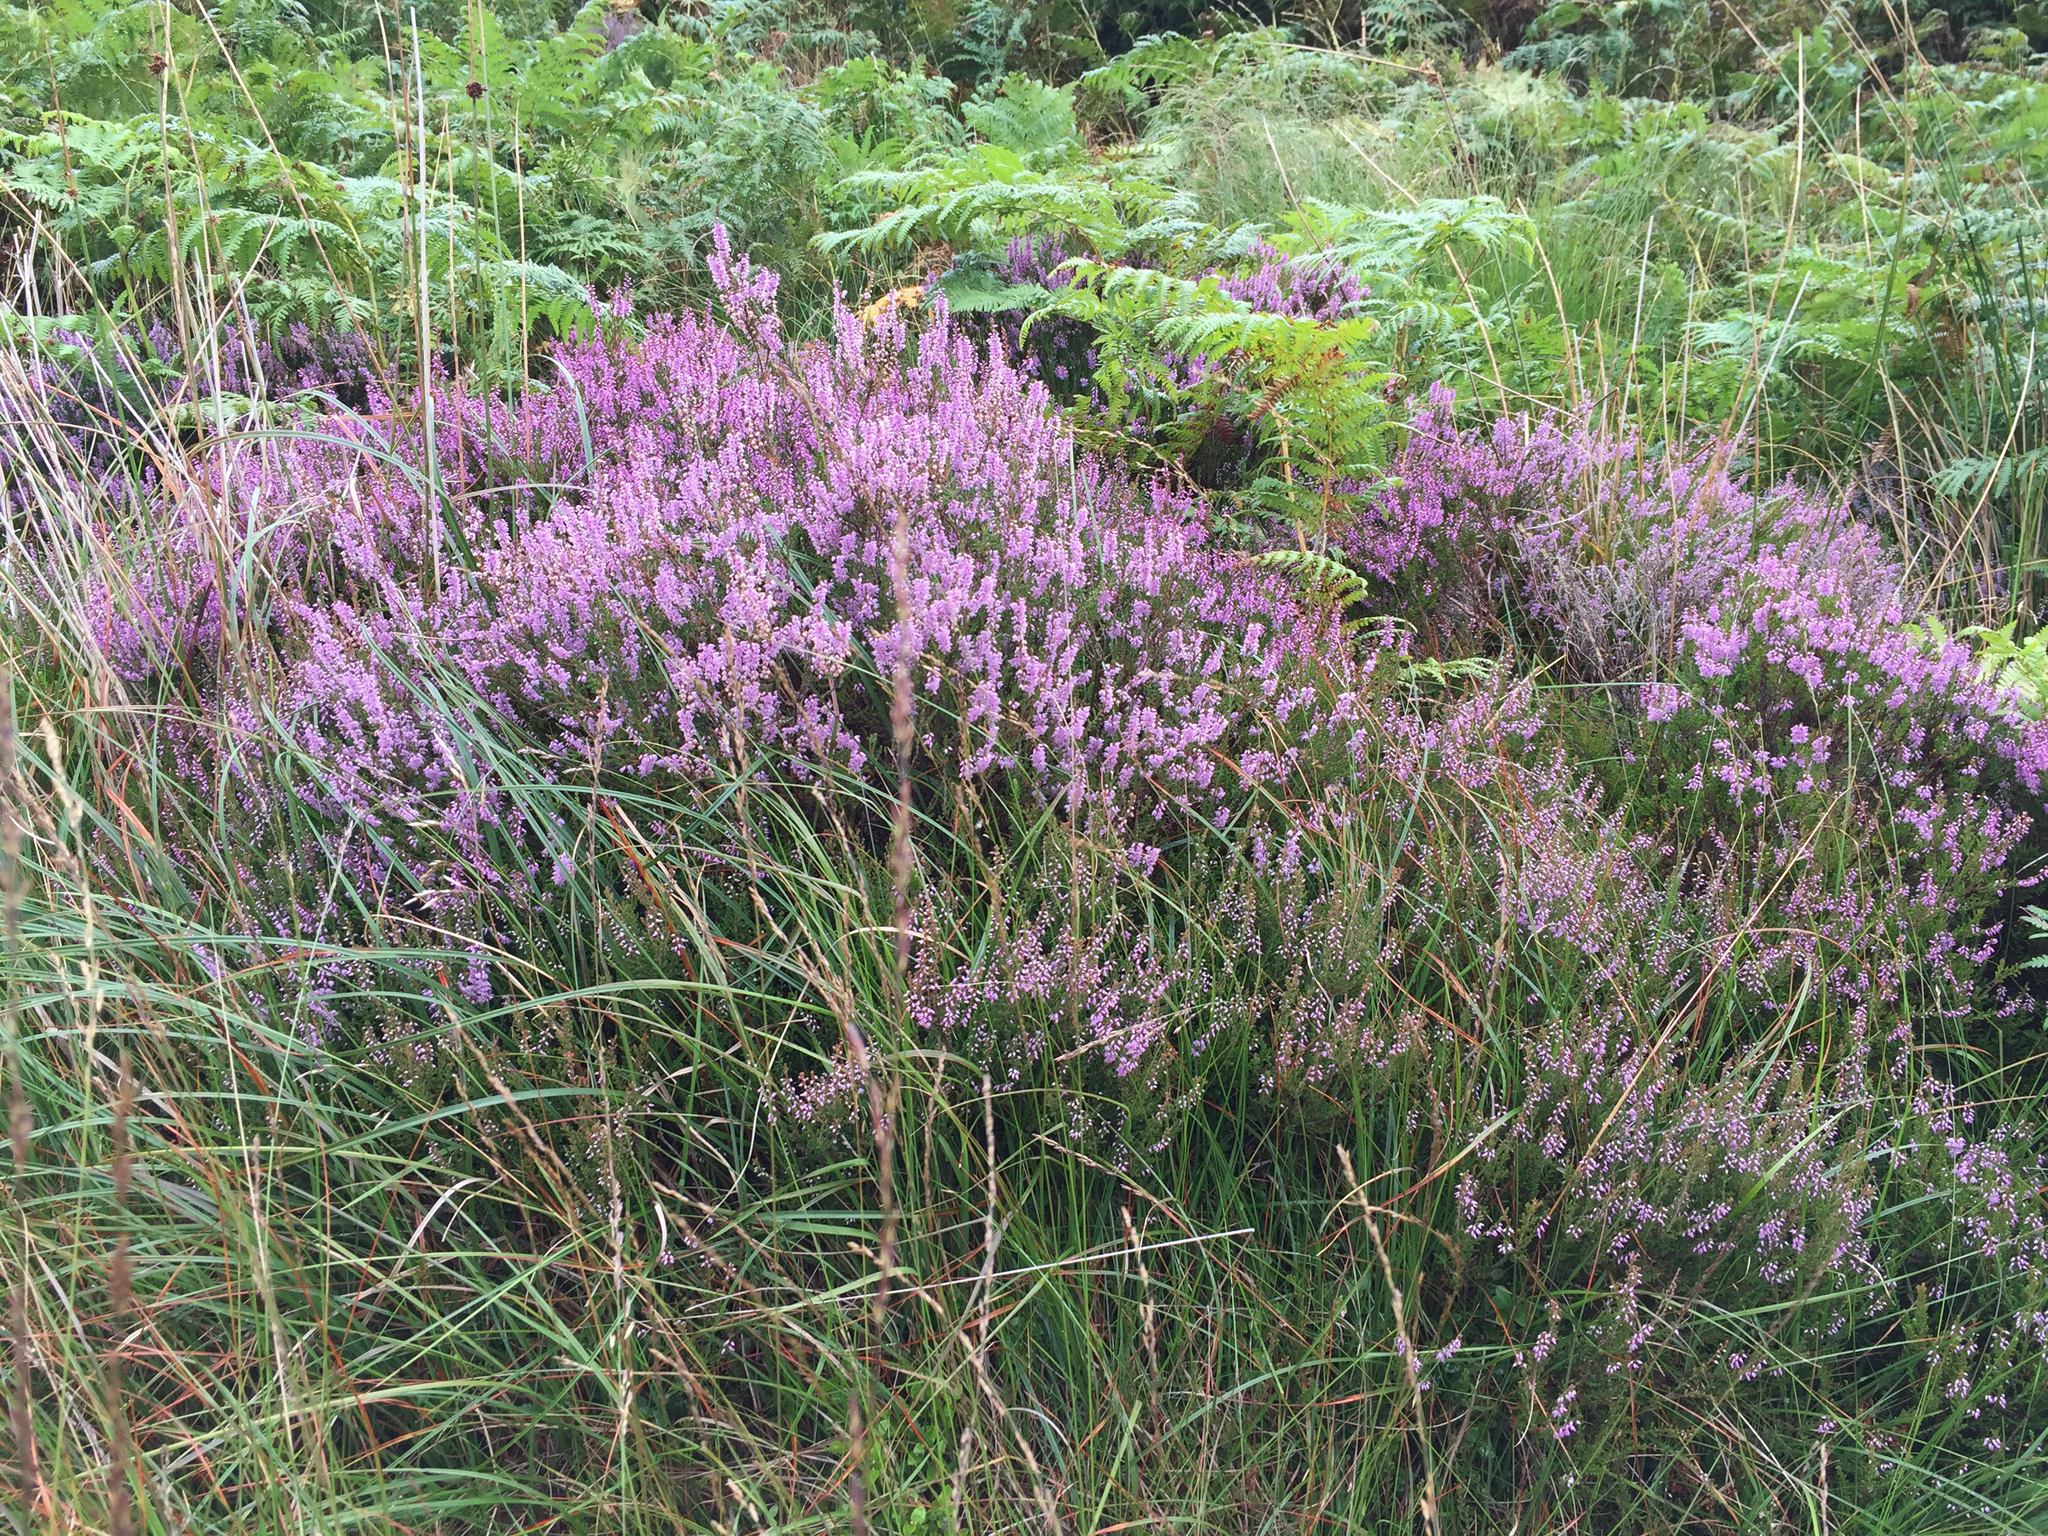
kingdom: Plantae
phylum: Tracheophyta
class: Magnoliopsida
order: Ericales
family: Ericaceae
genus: Calluna
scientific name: Calluna vulgaris
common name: Heather
